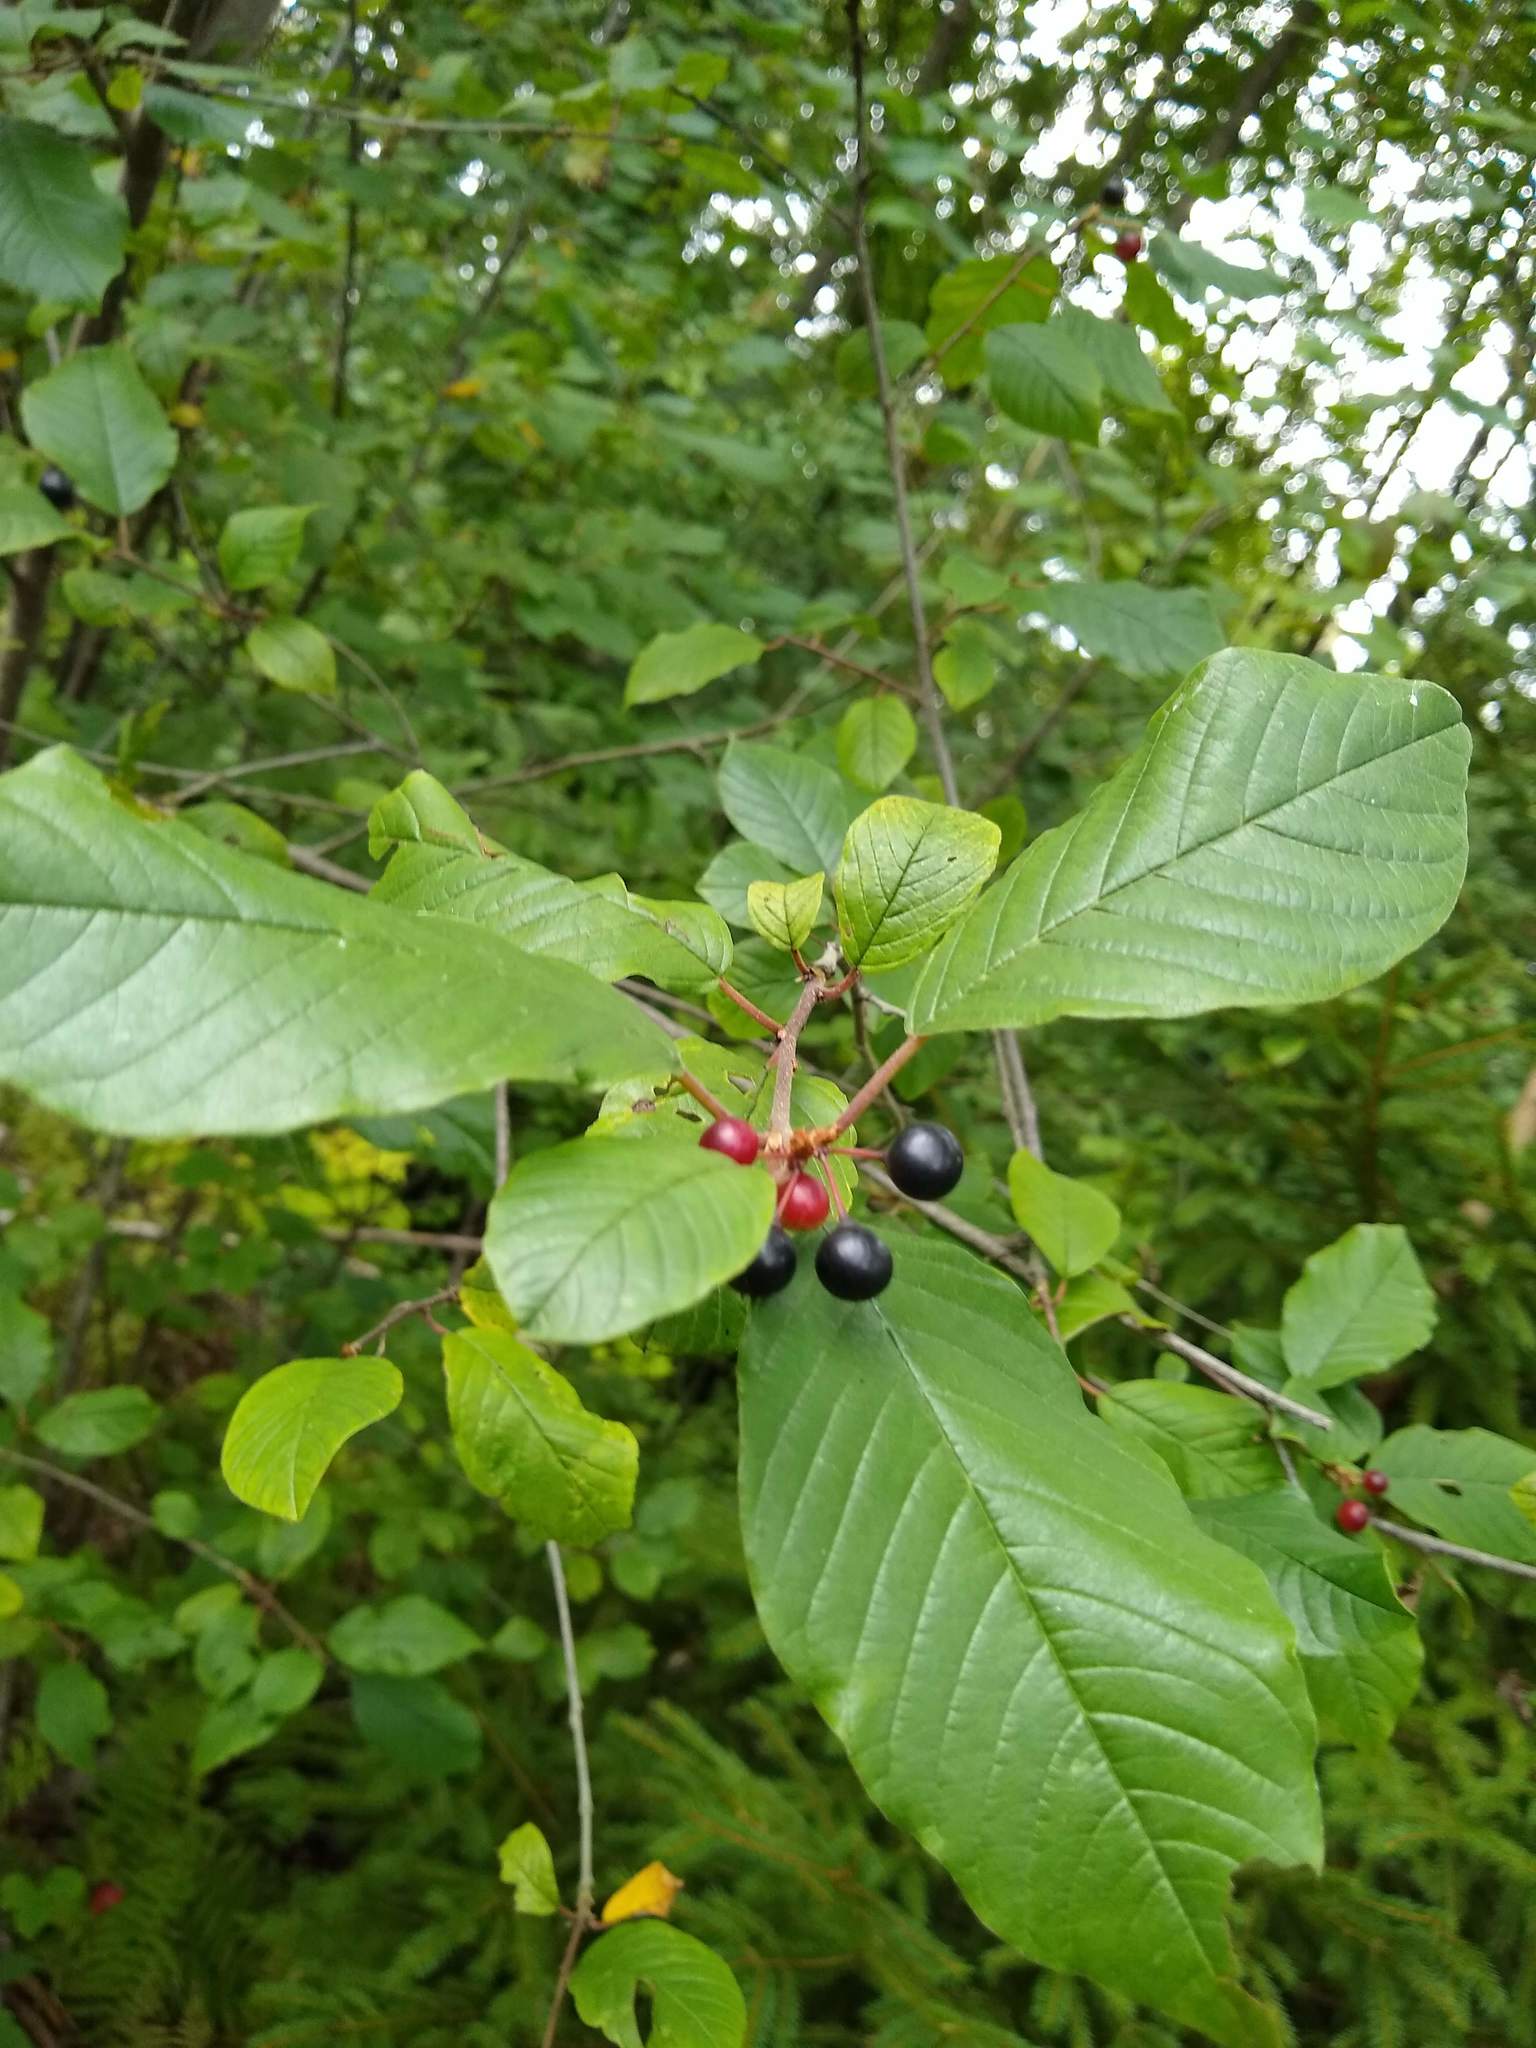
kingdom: Plantae
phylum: Tracheophyta
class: Magnoliopsida
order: Rosales
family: Rhamnaceae
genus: Frangula
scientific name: Frangula alnus
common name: Alder buckthorn
